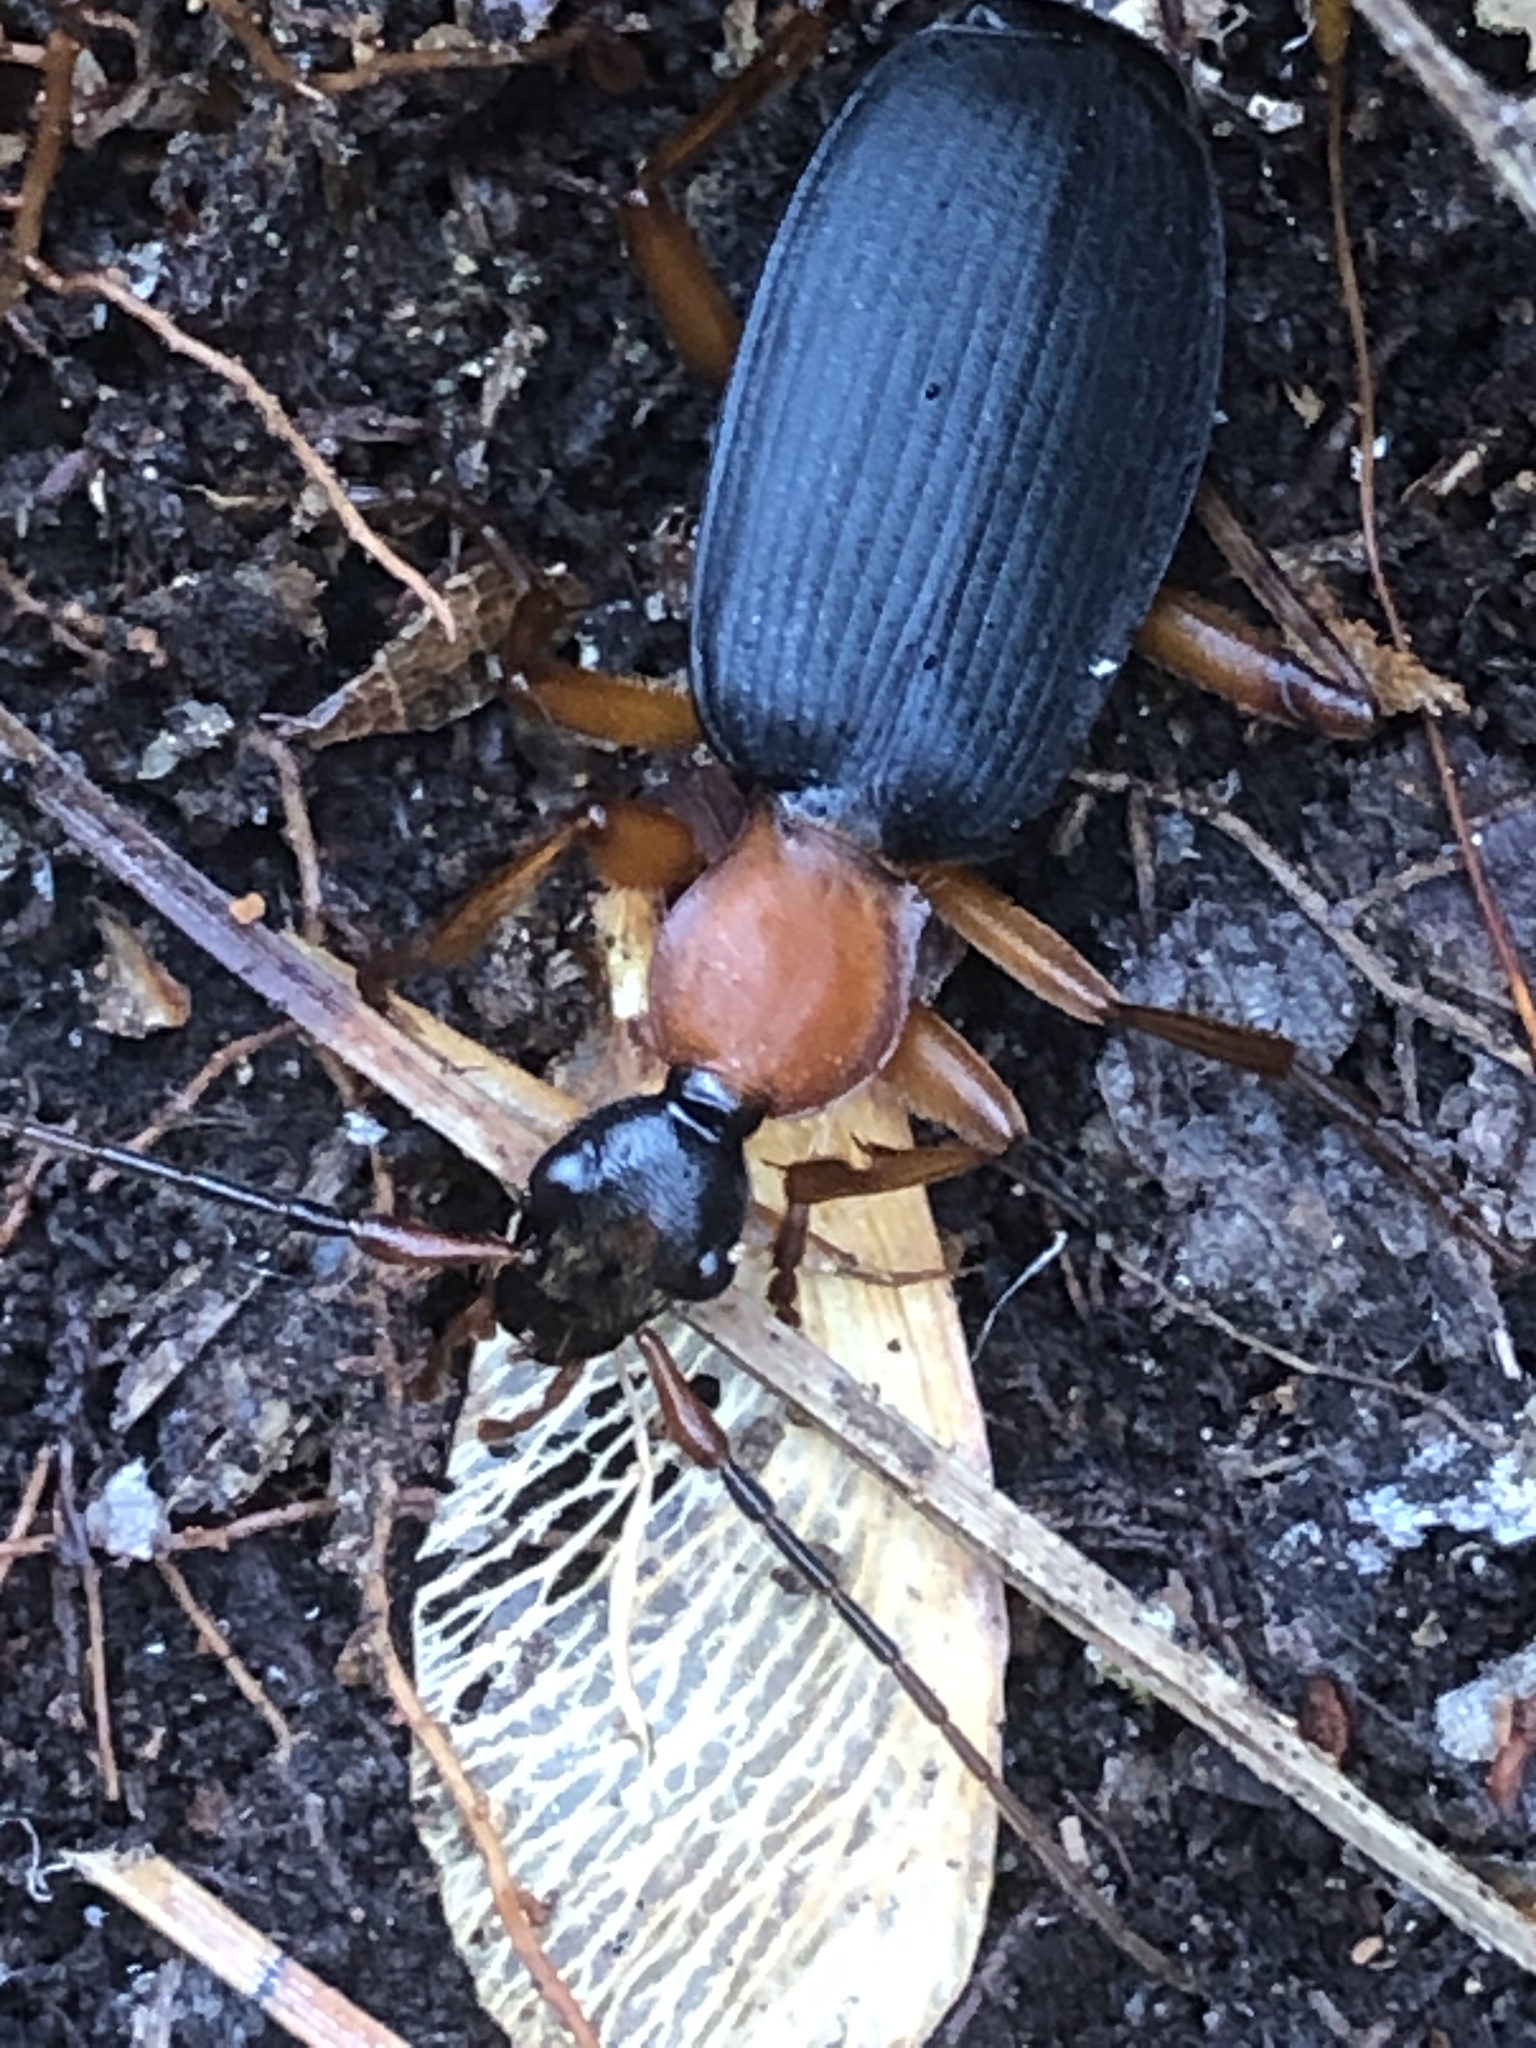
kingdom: Animalia
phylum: Arthropoda
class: Insecta
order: Coleoptera
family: Carabidae
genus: Galerita
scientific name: Galerita bicolor
